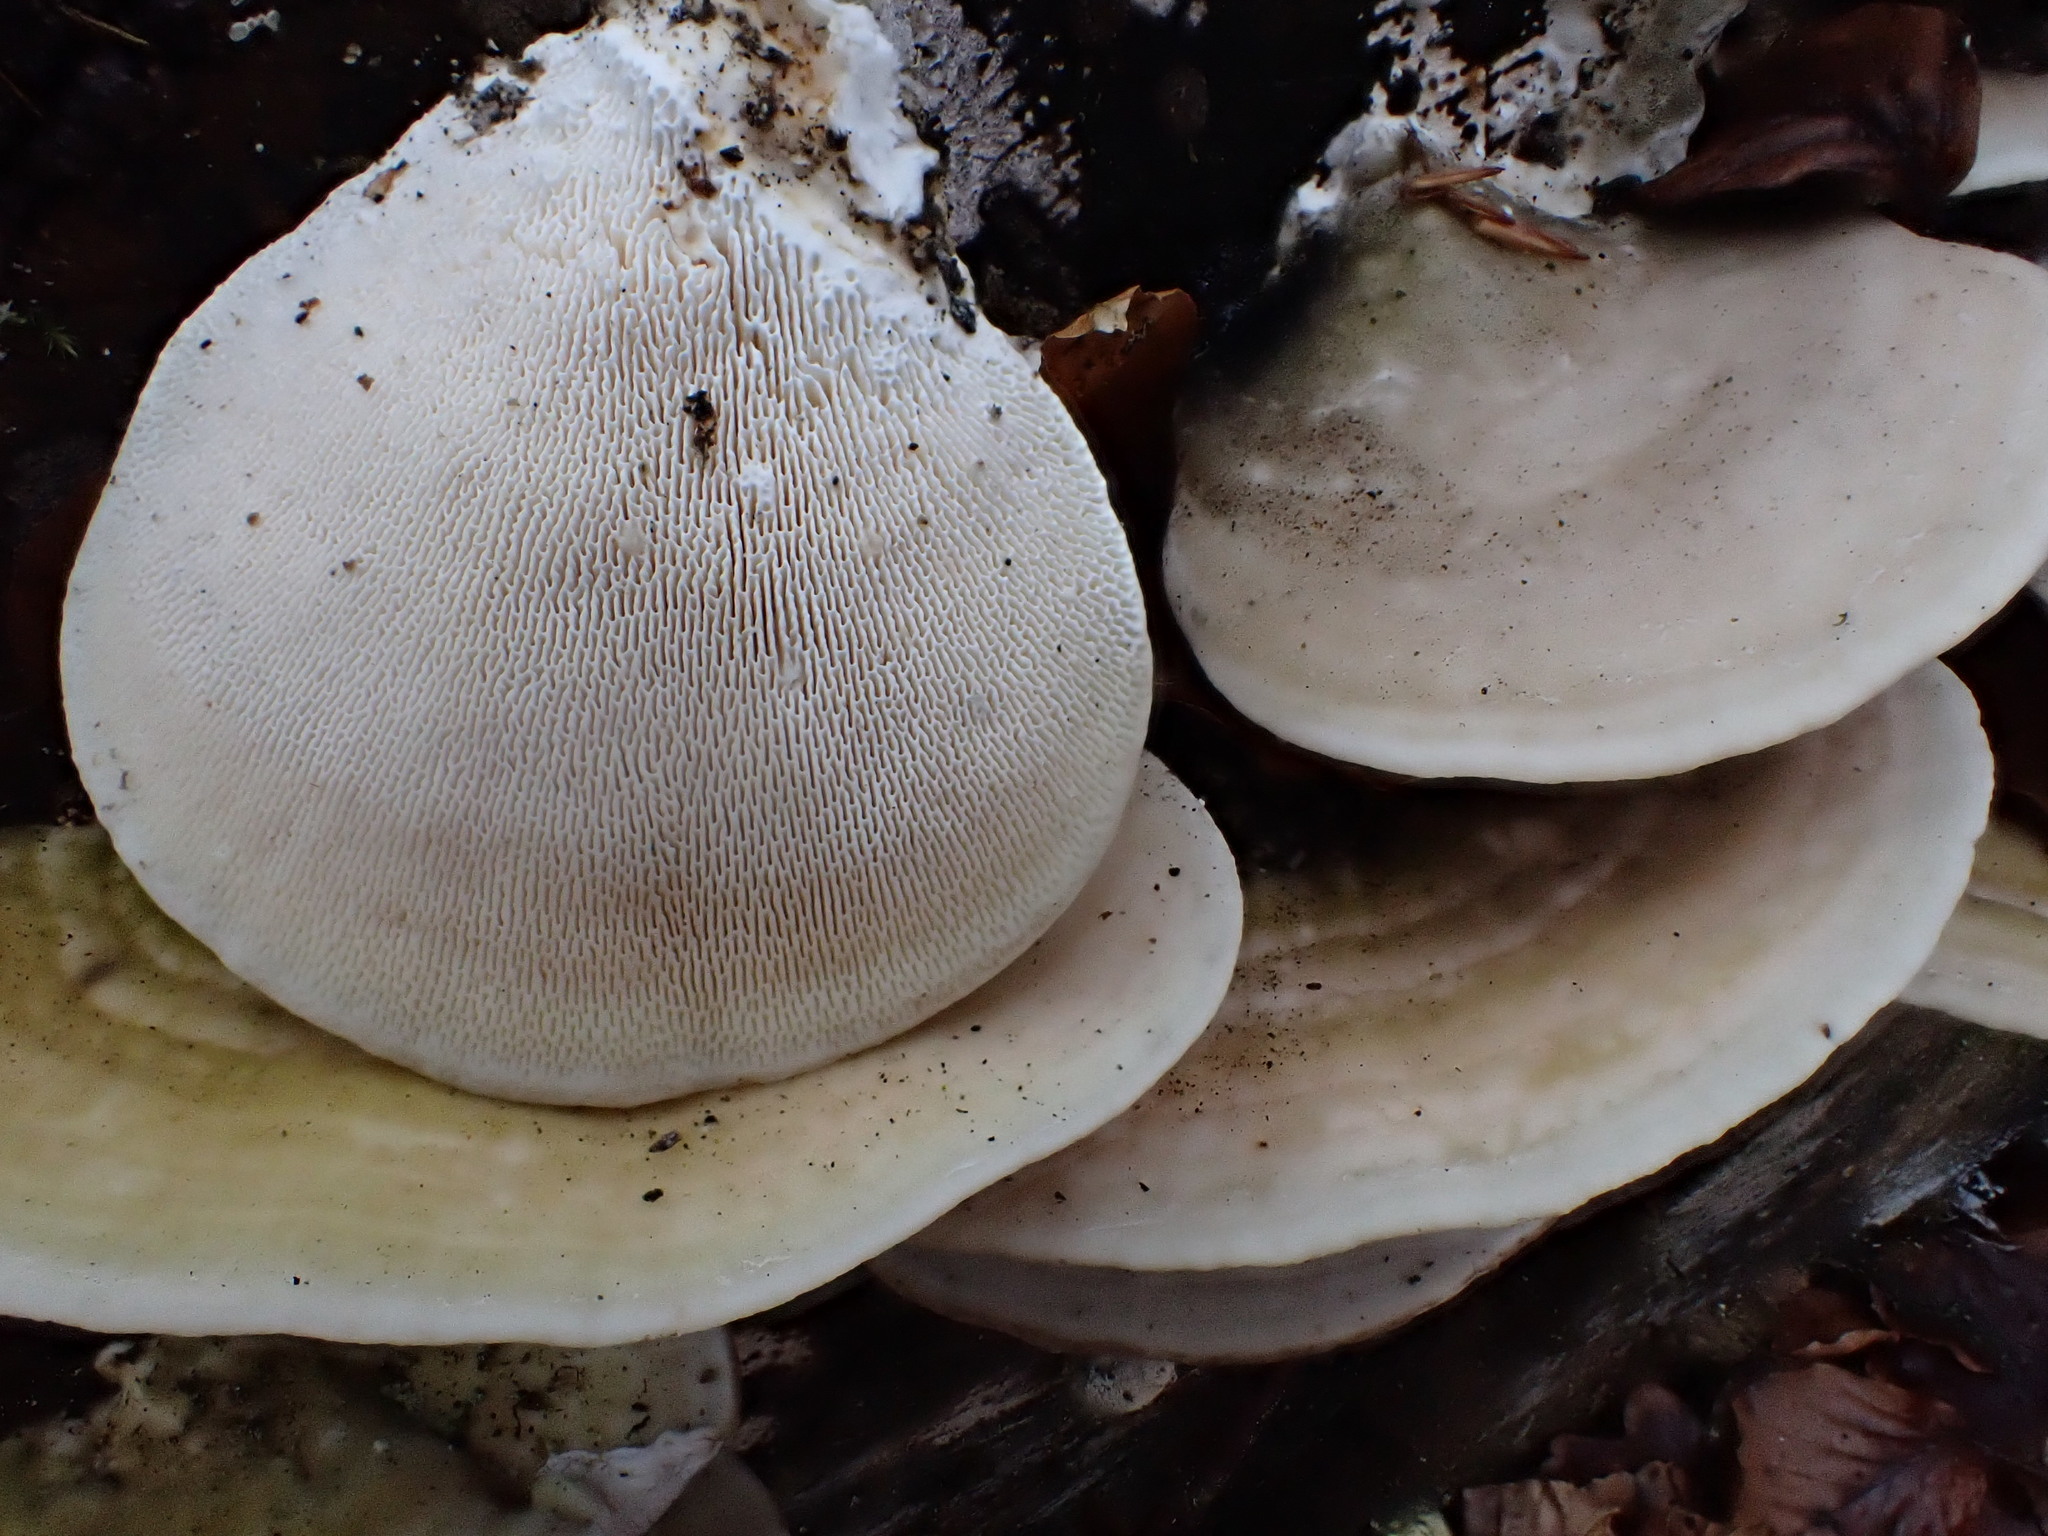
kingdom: Fungi
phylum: Basidiomycota
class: Agaricomycetes
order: Polyporales
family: Polyporaceae
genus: Trametes
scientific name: Trametes gibbosa
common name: Lumpy bracket
